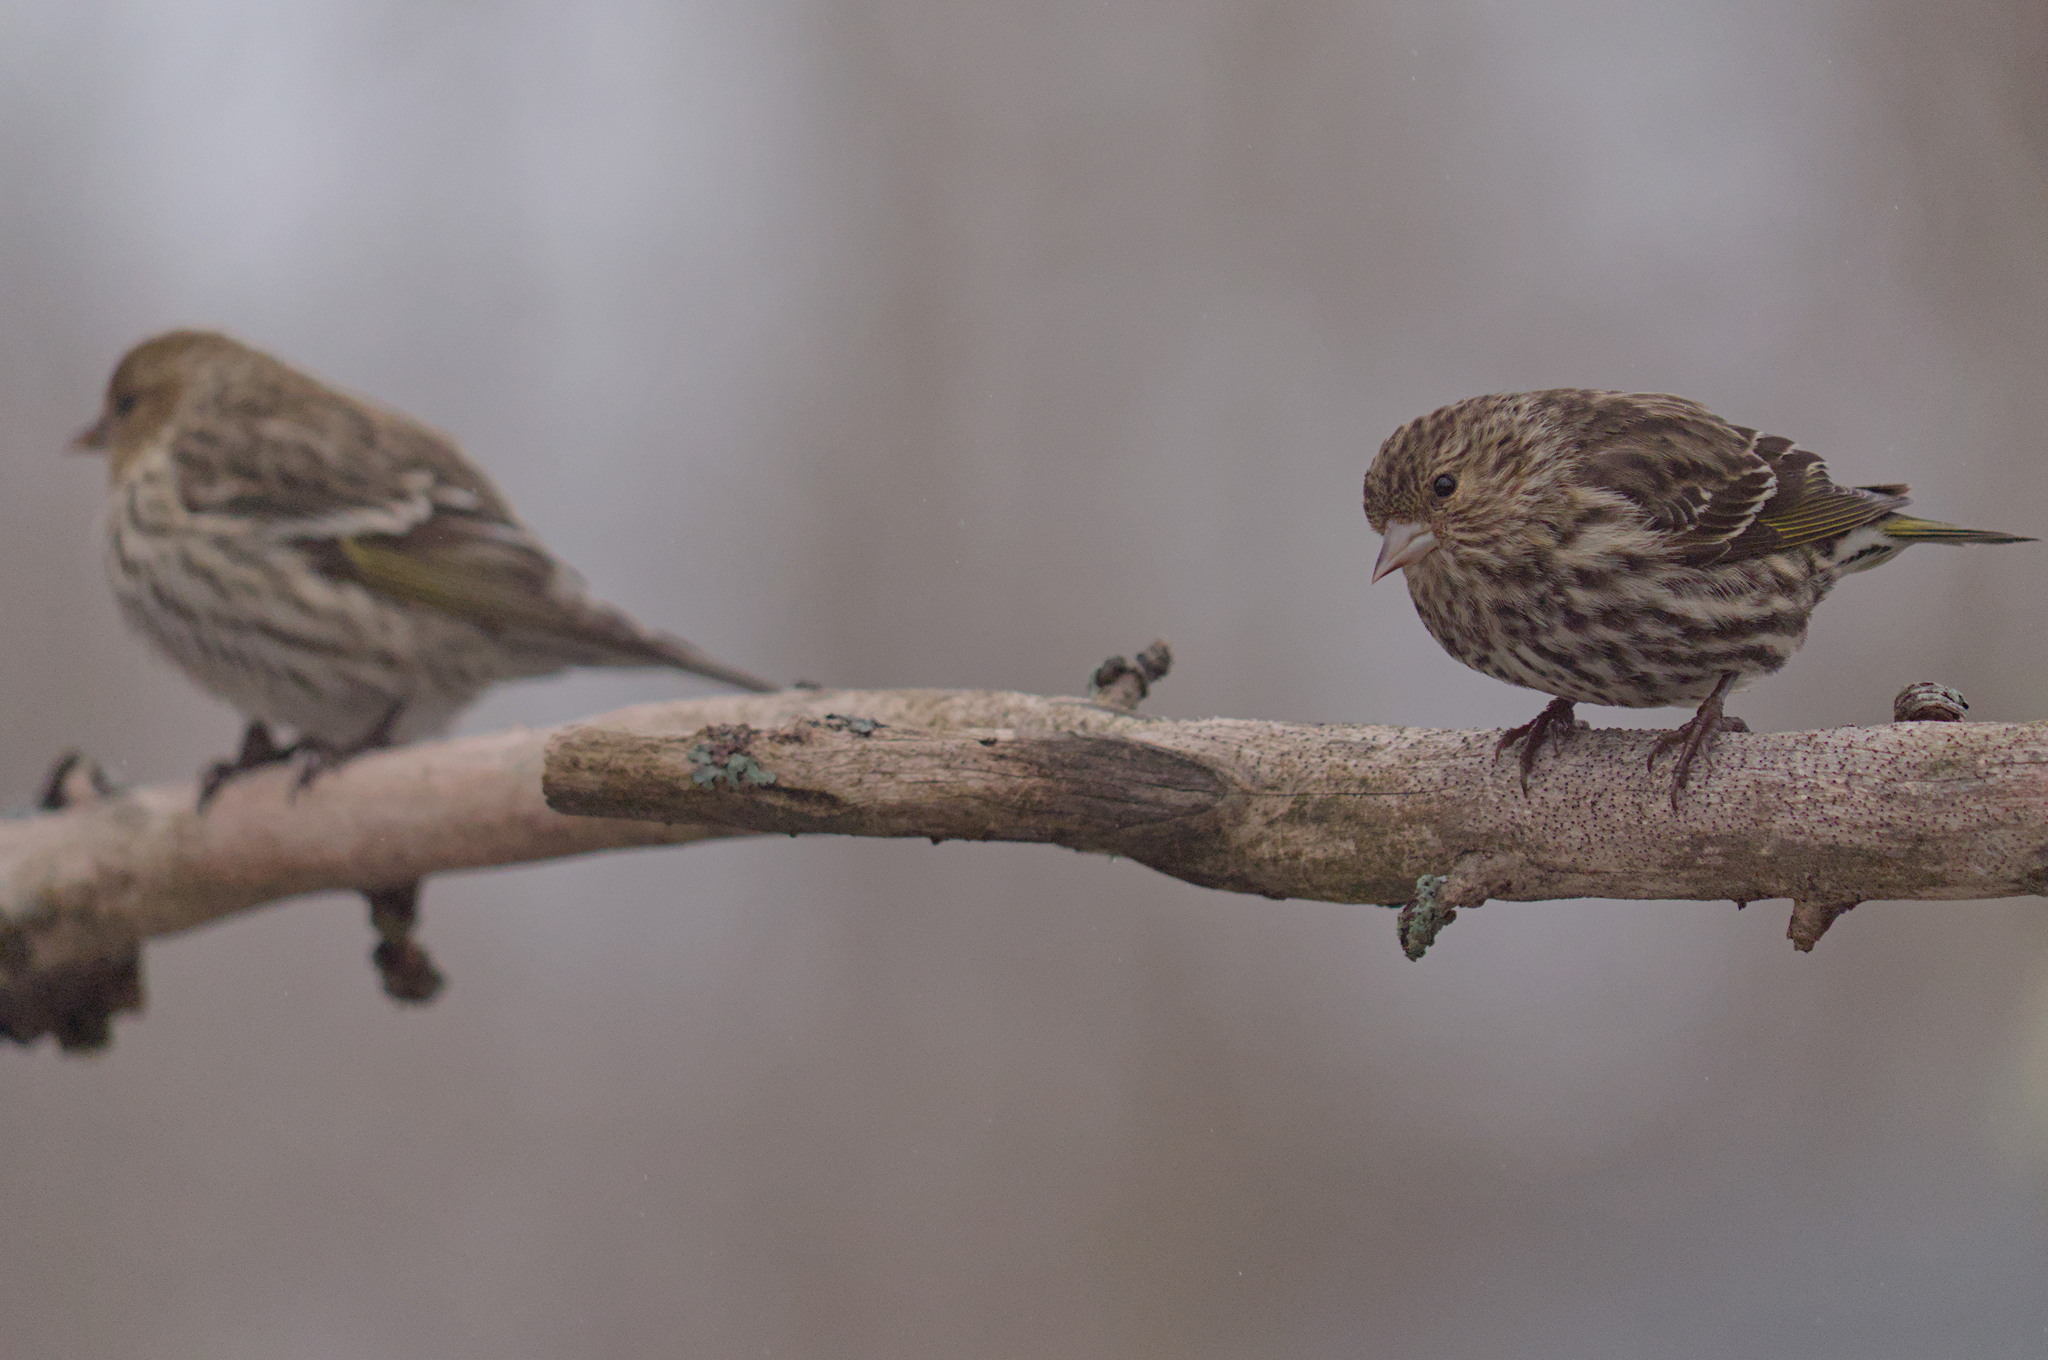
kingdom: Animalia
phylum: Chordata
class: Aves
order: Passeriformes
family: Fringillidae
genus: Spinus
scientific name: Spinus pinus
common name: Pine siskin
